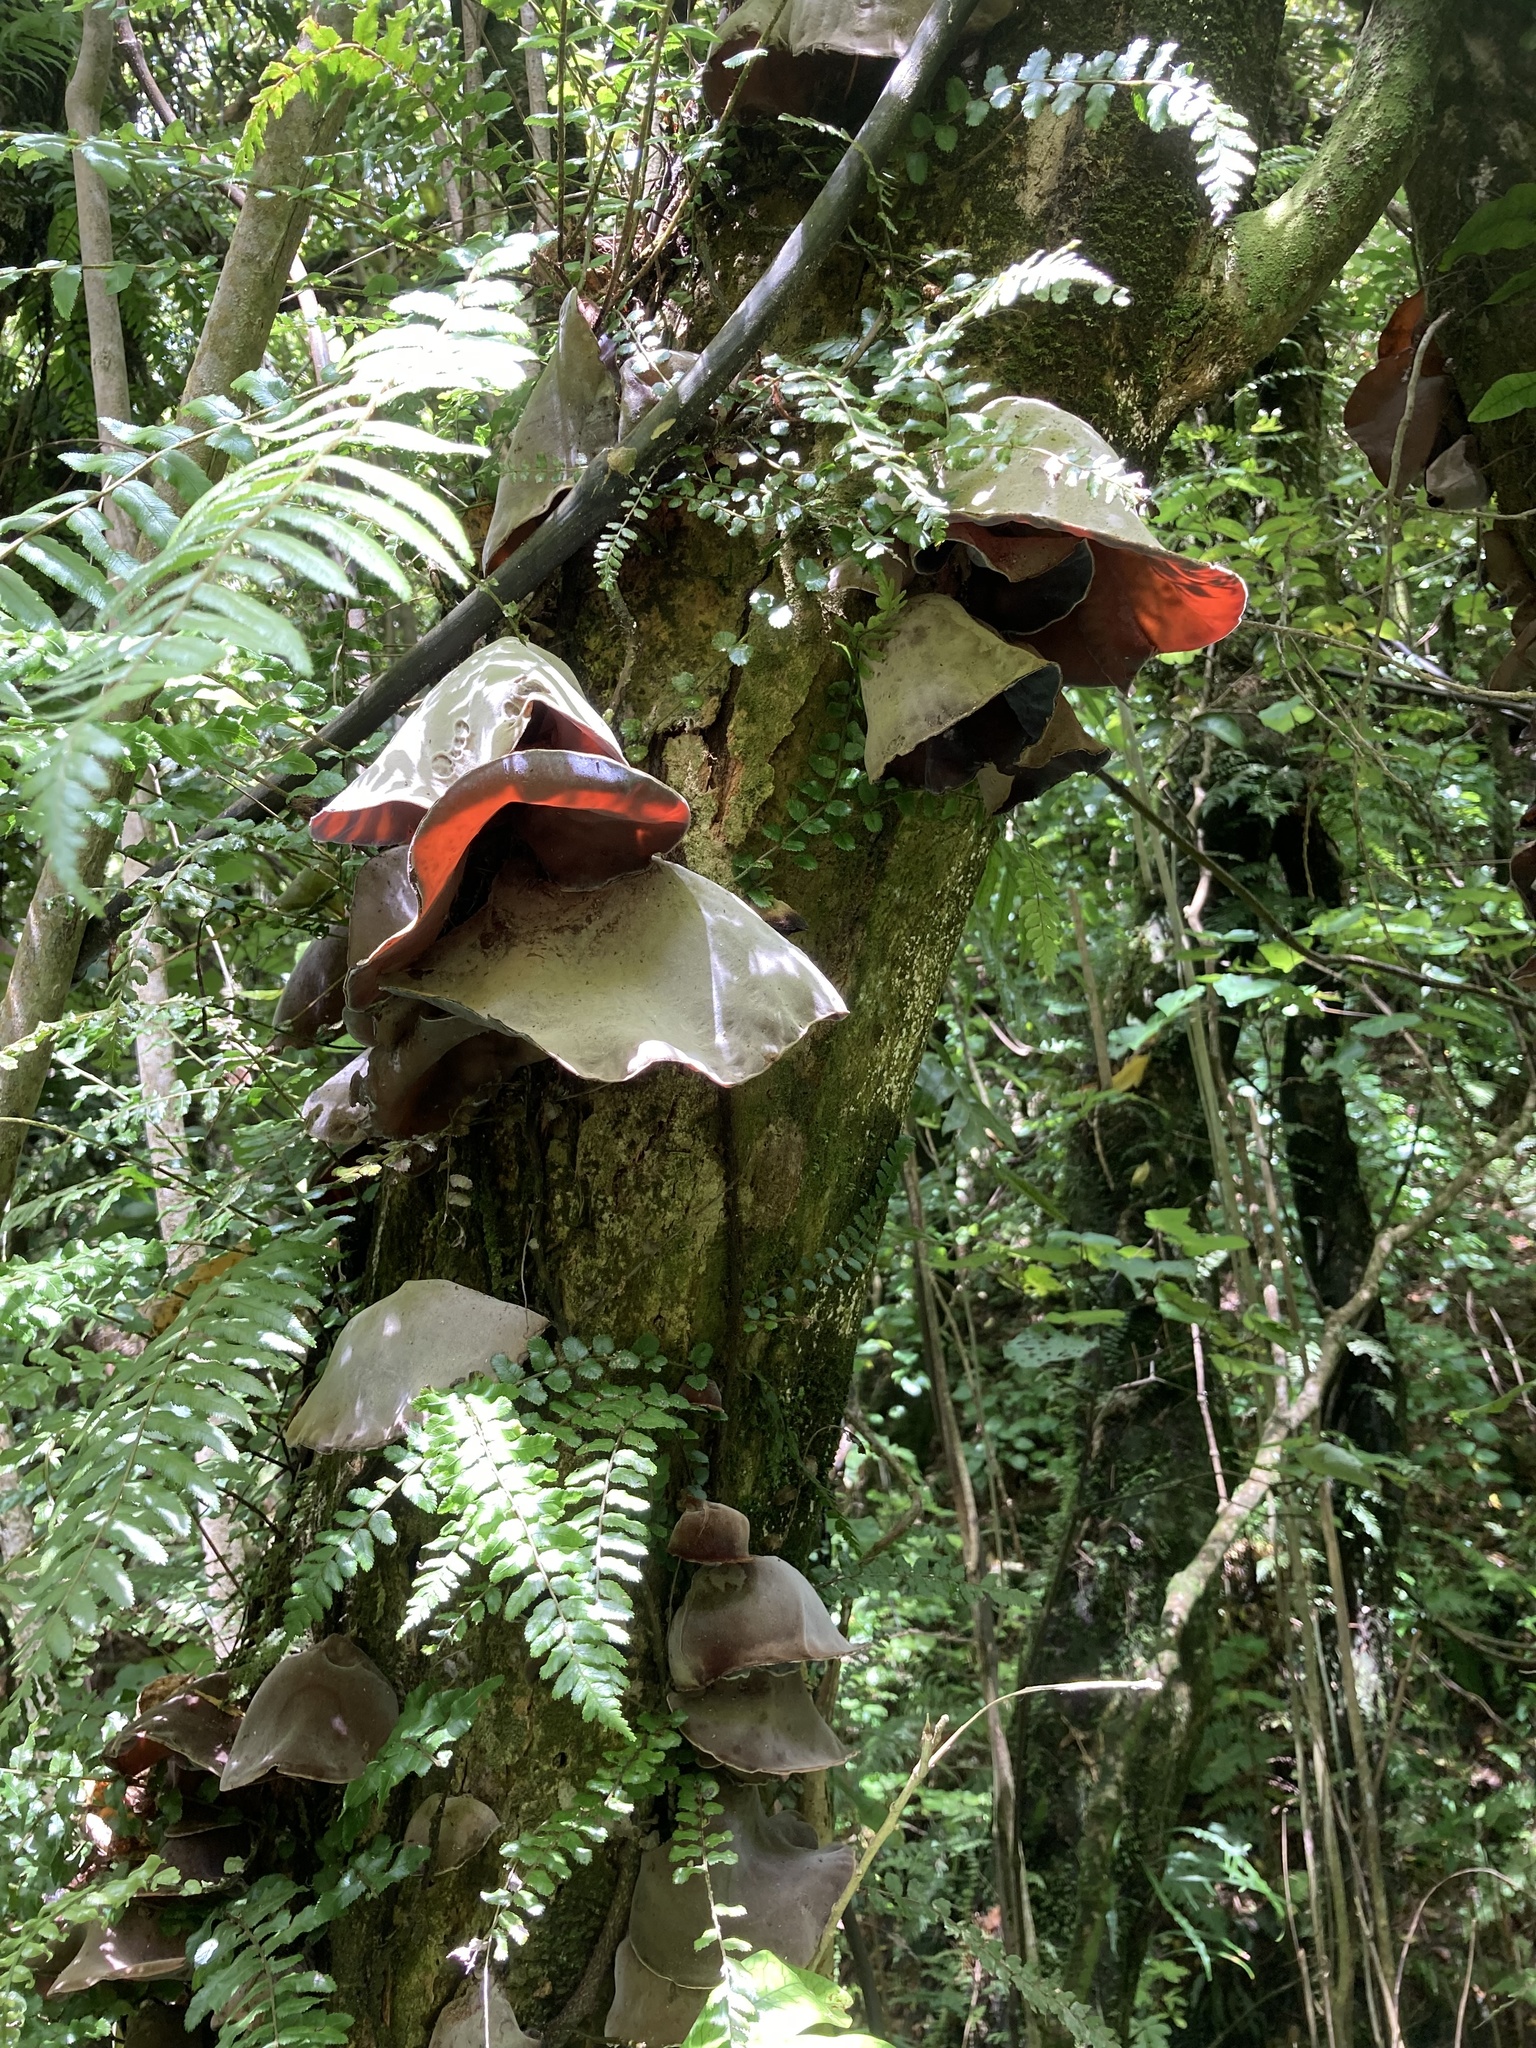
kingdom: Fungi
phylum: Basidiomycota
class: Agaricomycetes
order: Auriculariales
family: Auriculariaceae
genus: Auricularia
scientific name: Auricularia cornea
